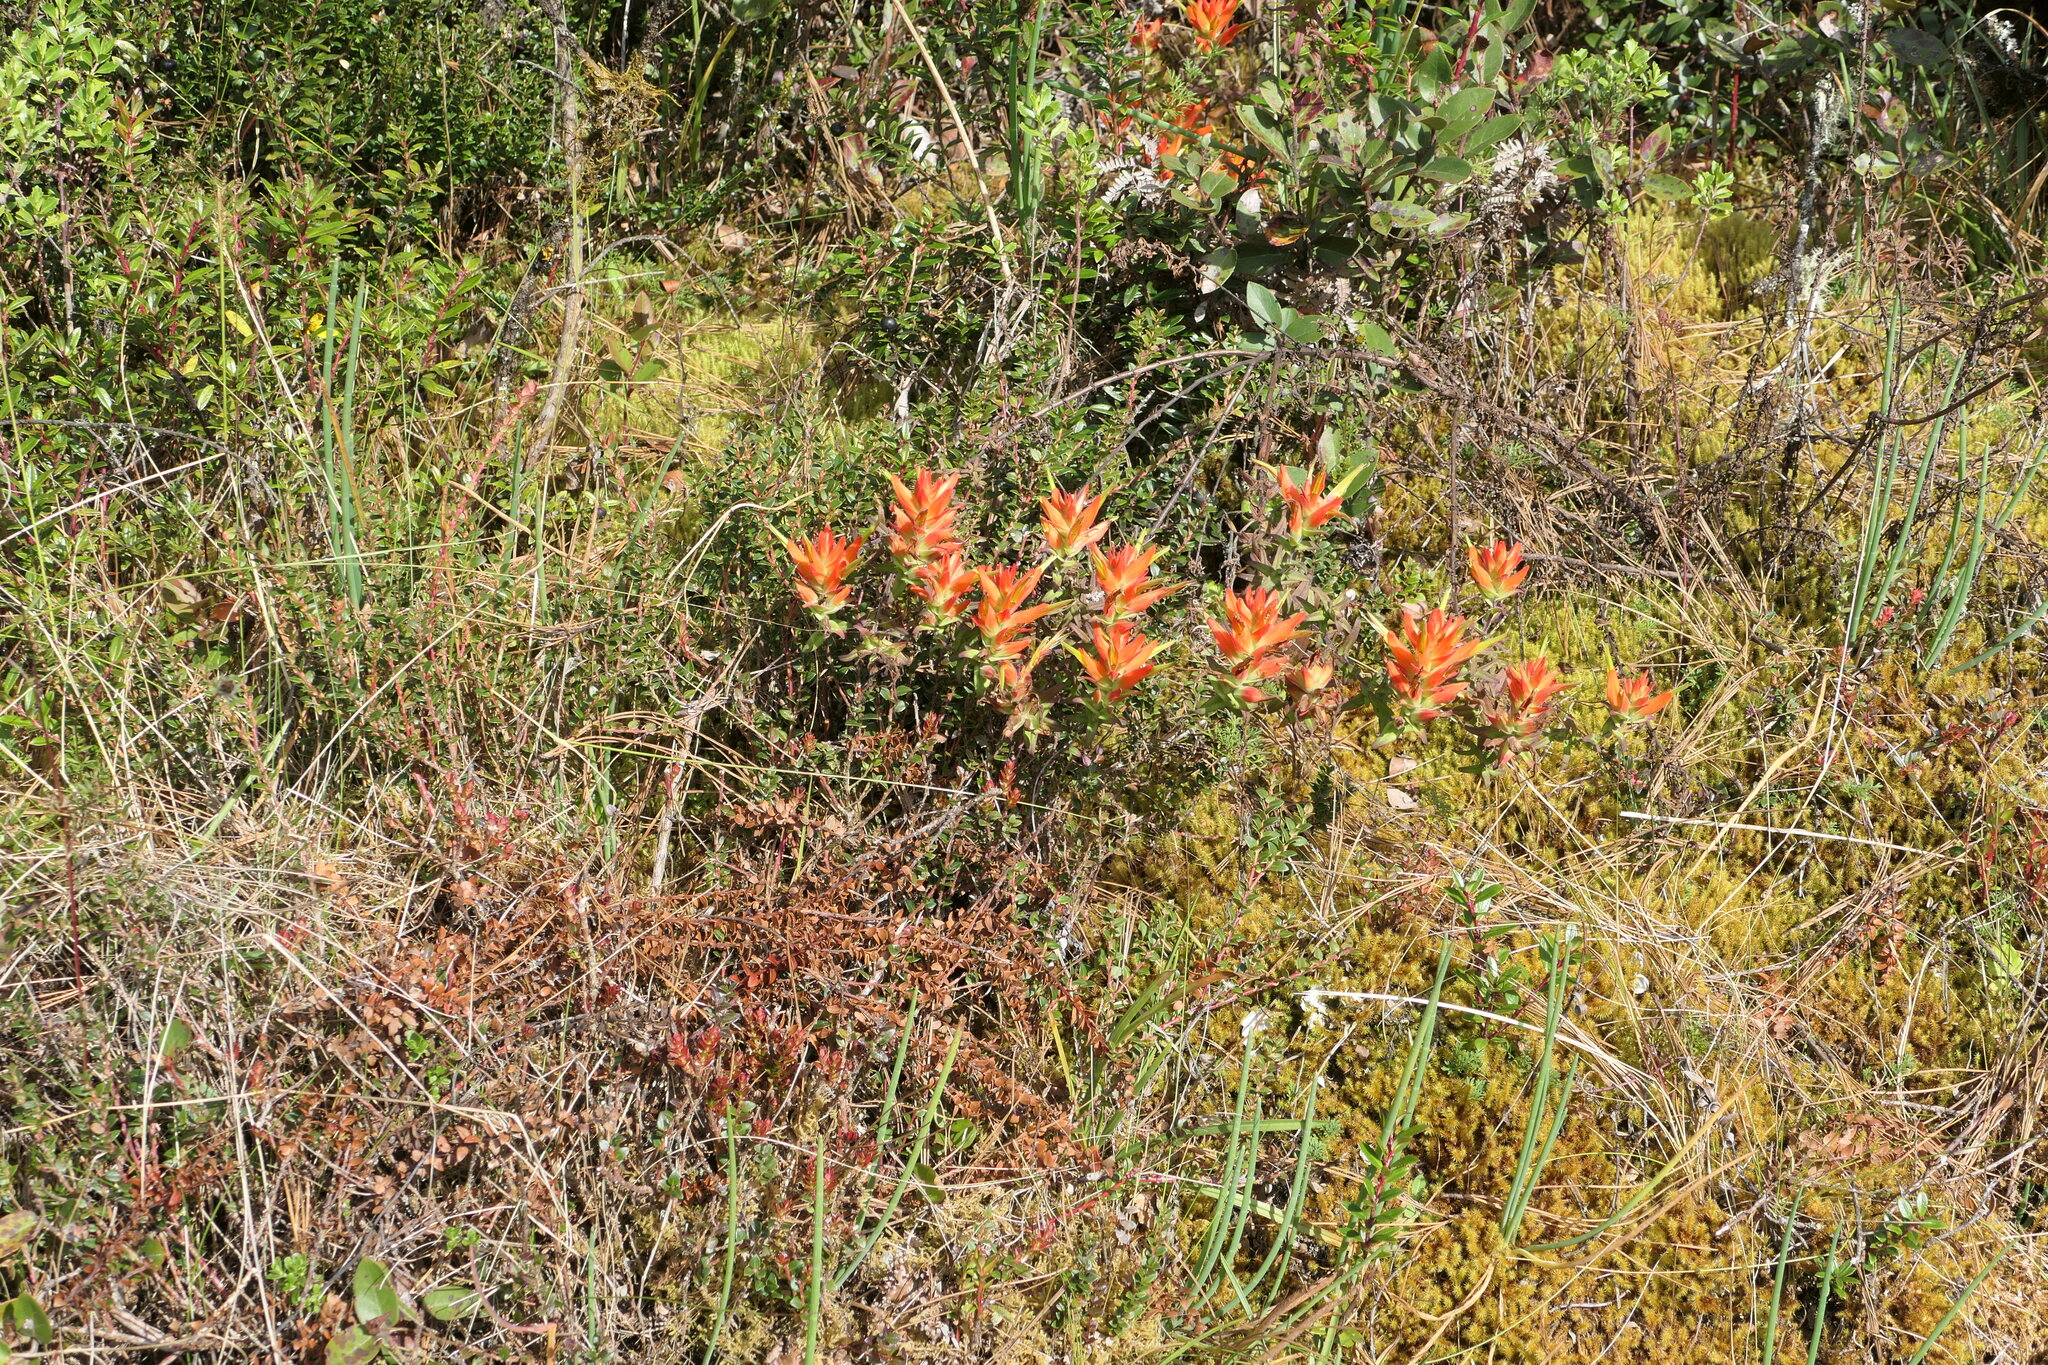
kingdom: Plantae
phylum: Tracheophyta
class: Magnoliopsida
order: Lamiales
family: Orobanchaceae
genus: Castilleja
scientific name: Castilleja tenuiflora
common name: Santa catalina indian paintbrush
